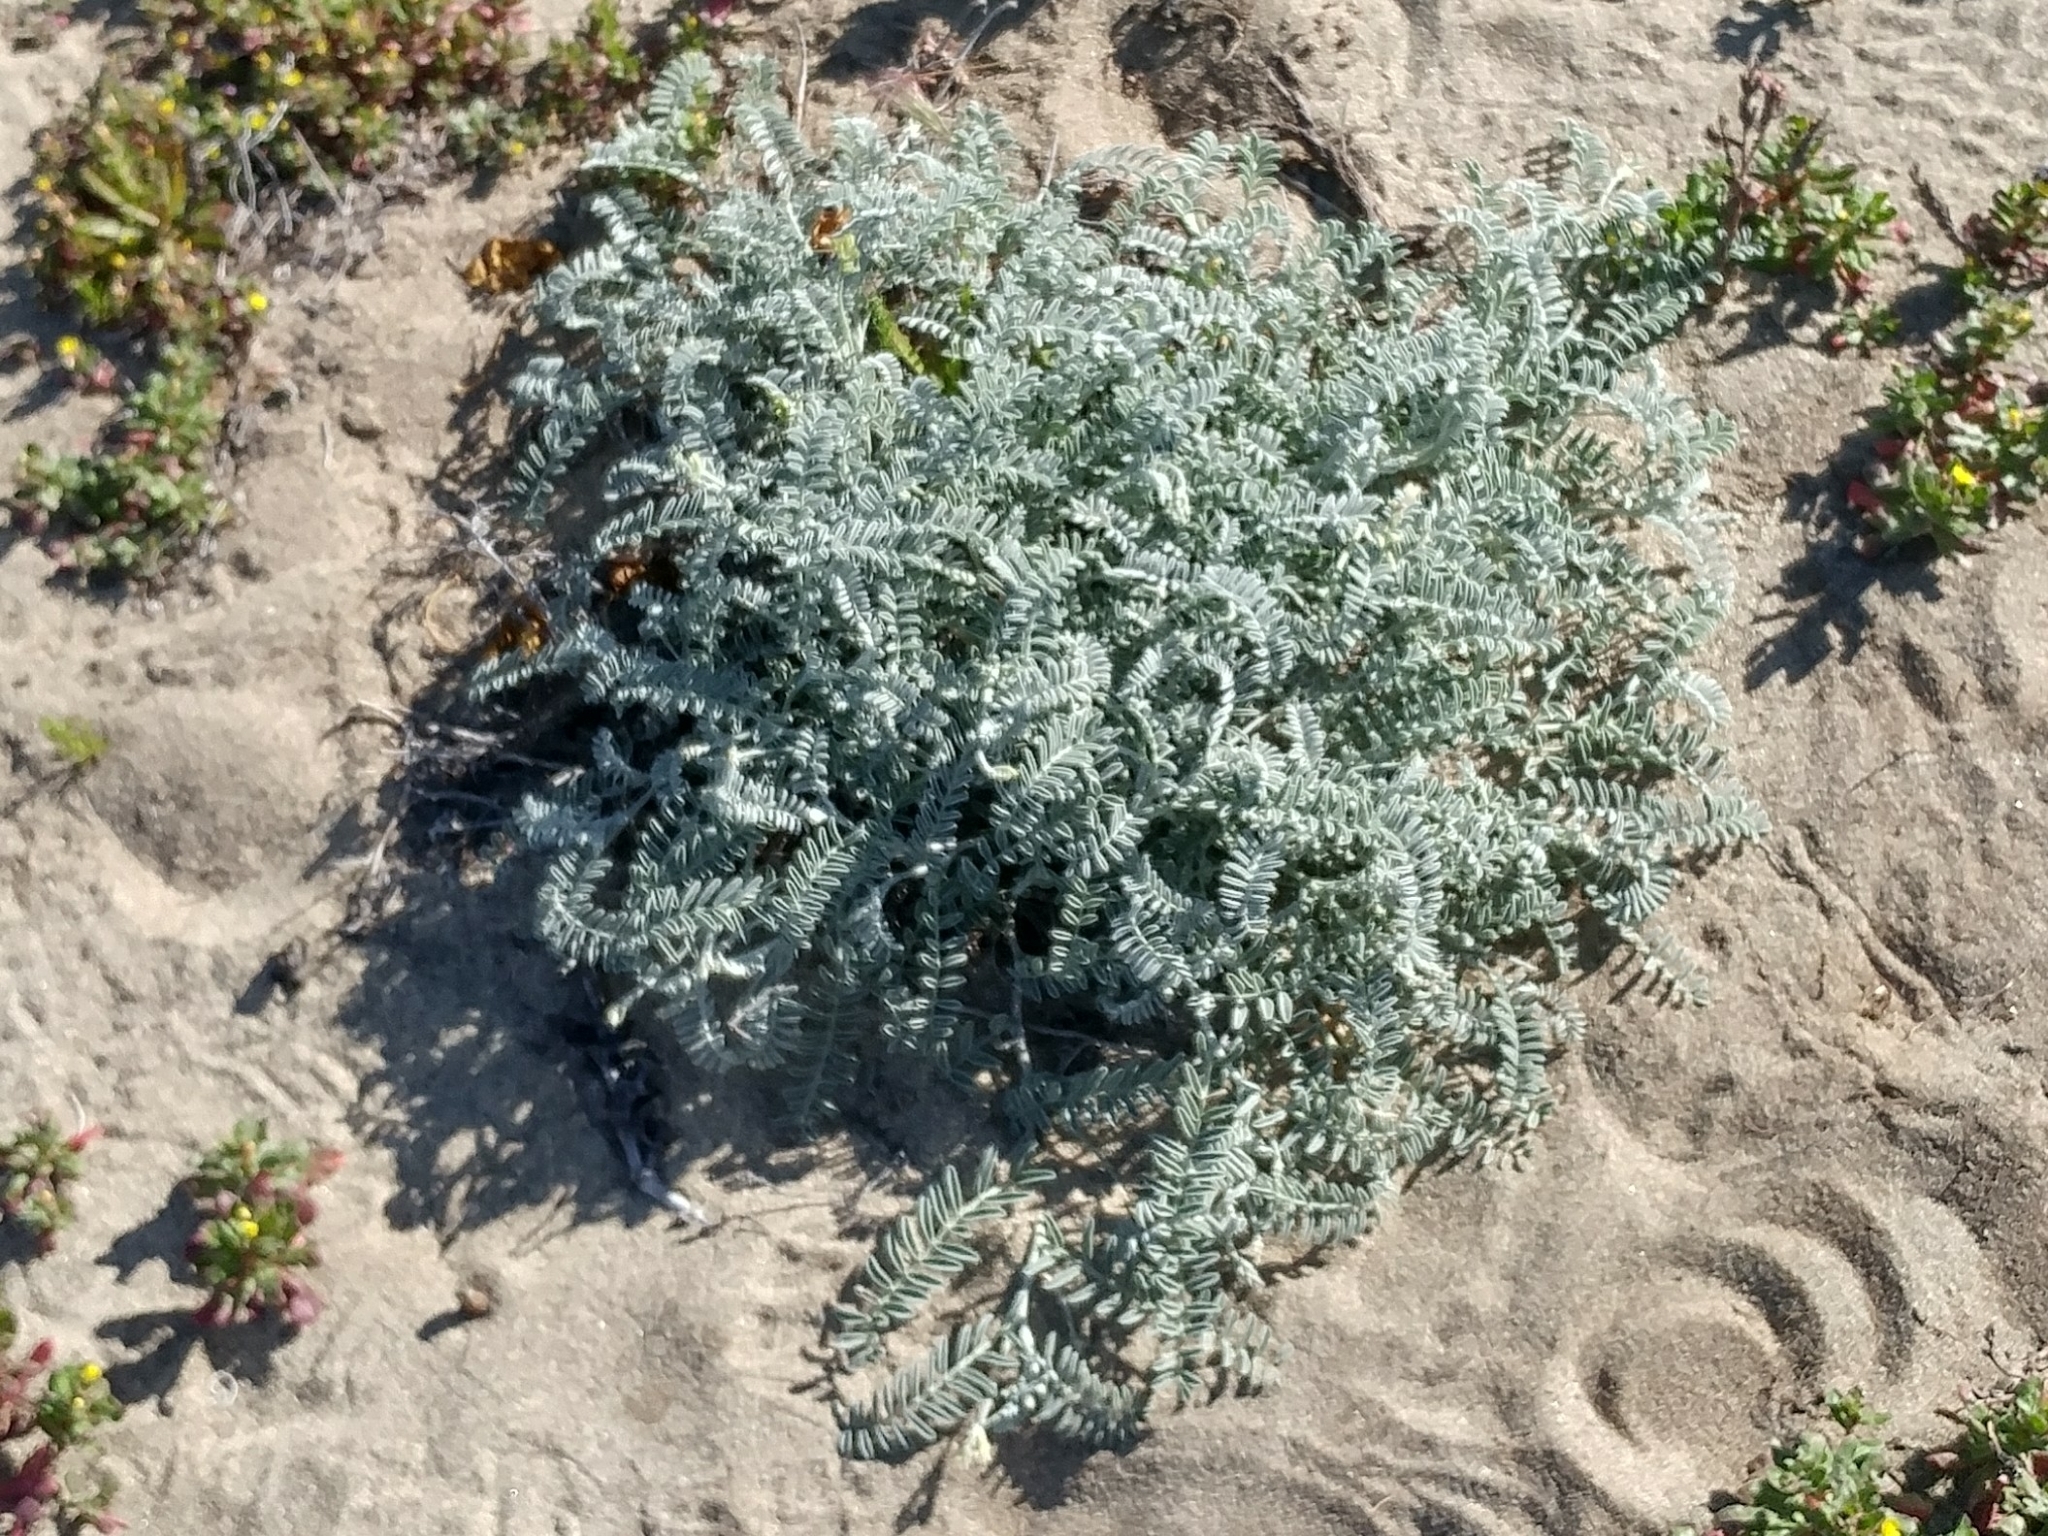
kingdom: Plantae
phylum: Tracheophyta
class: Magnoliopsida
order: Fabales
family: Fabaceae
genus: Astragalus
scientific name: Astragalus miguelensis
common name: San miguel milk-vetch
